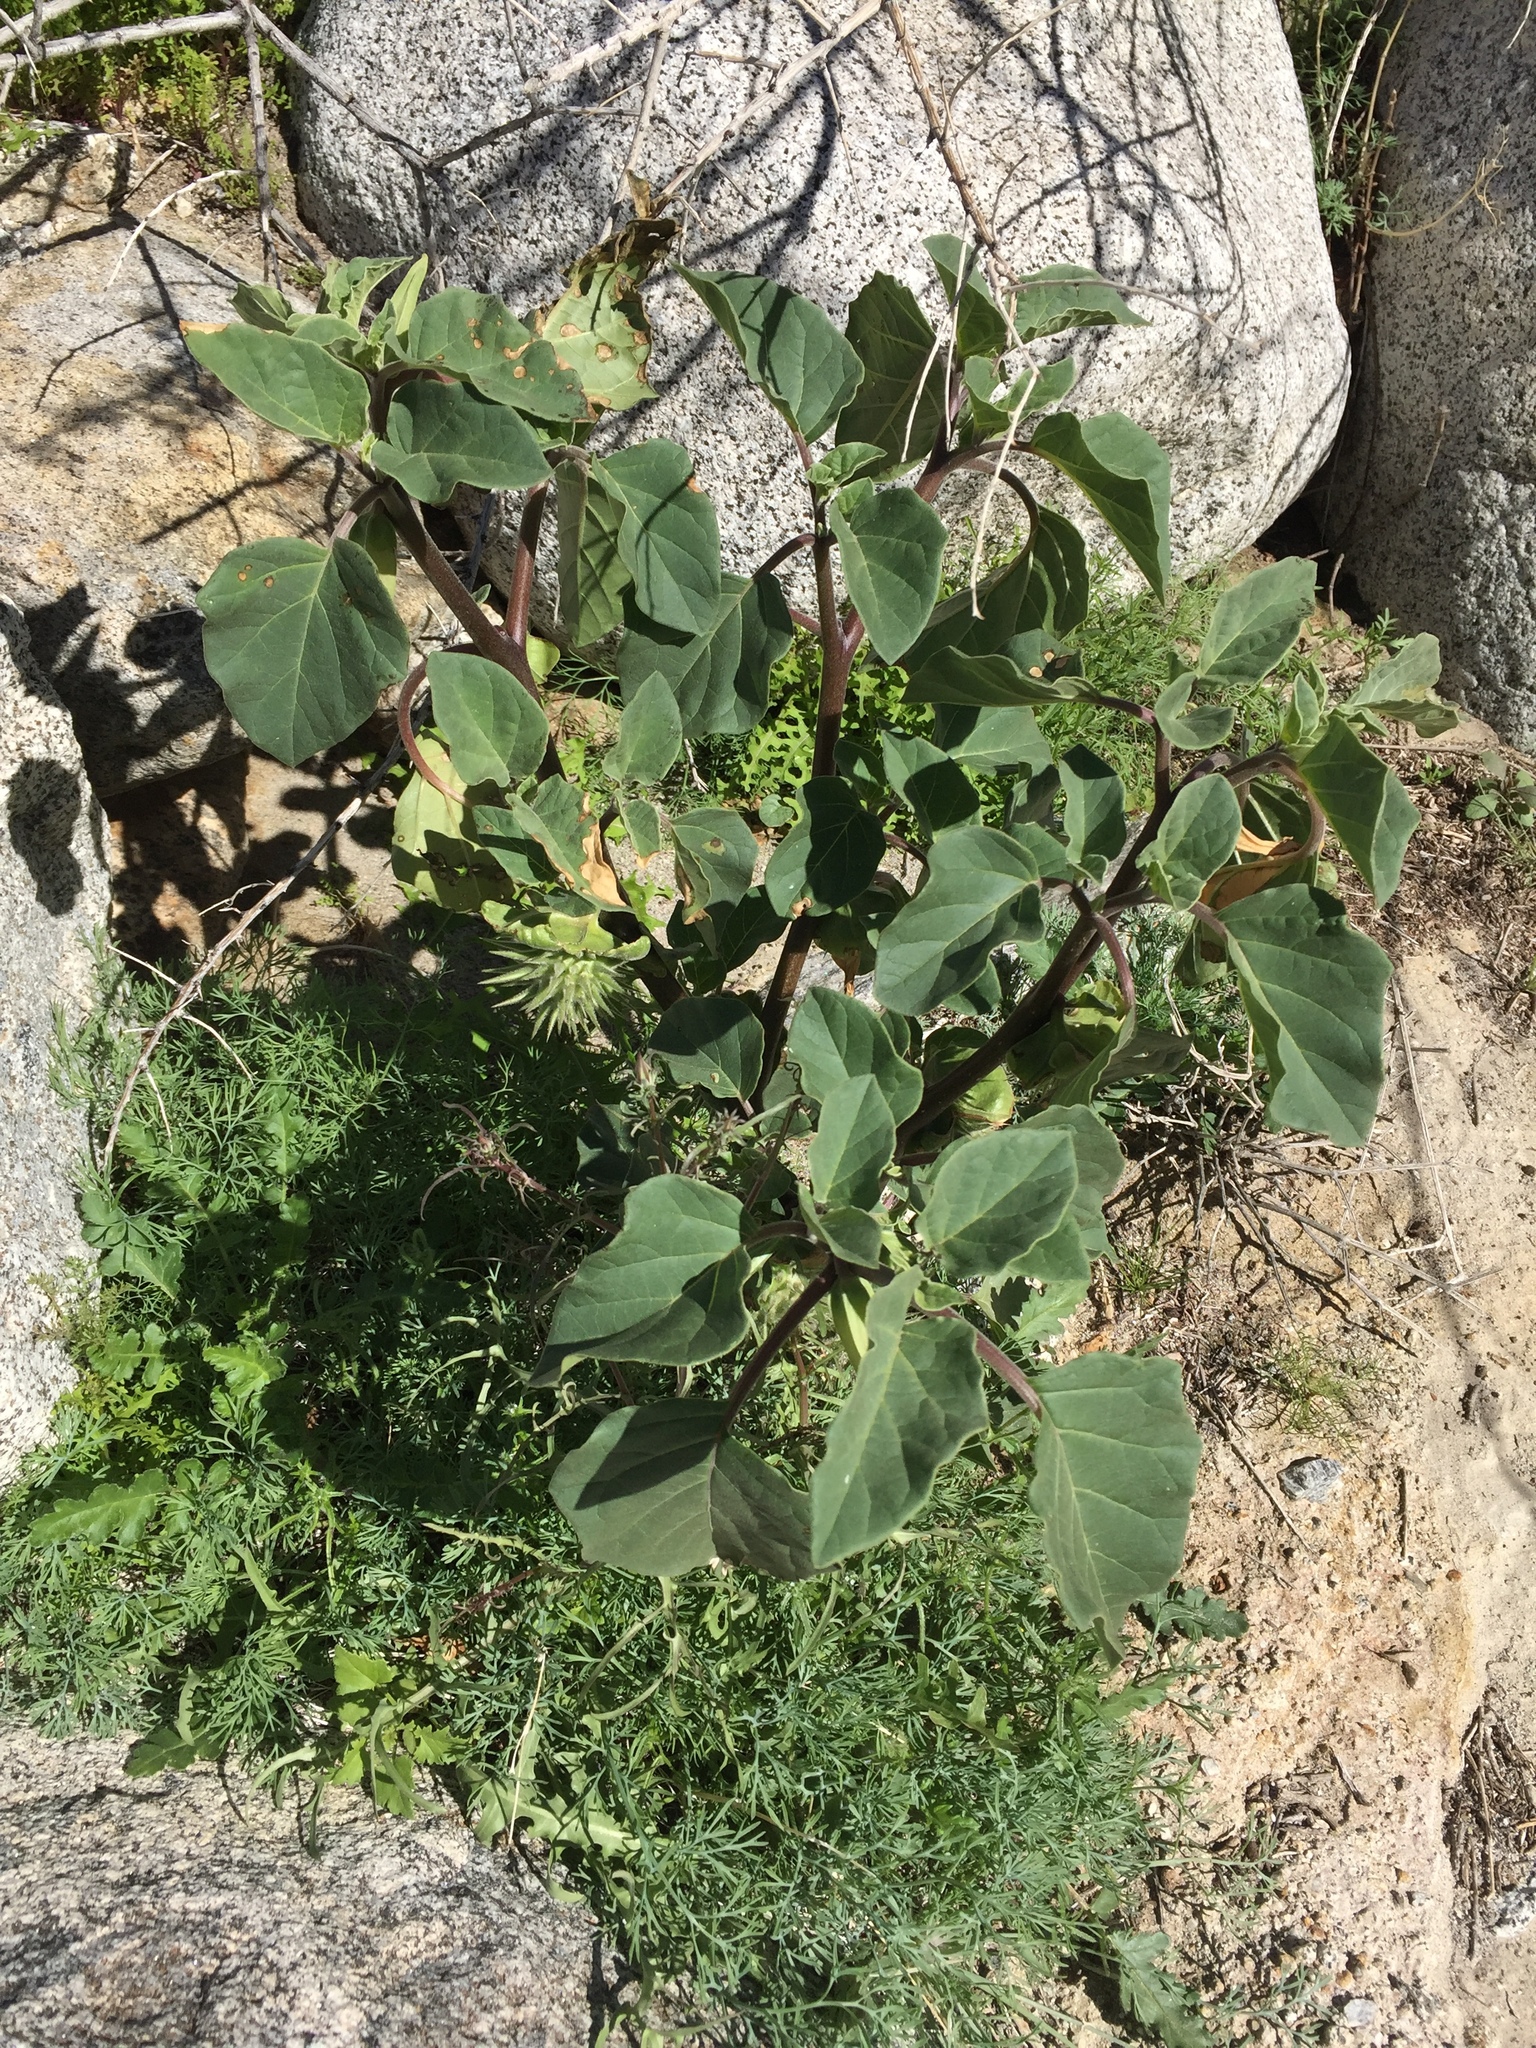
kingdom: Plantae
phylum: Tracheophyta
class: Magnoliopsida
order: Solanales
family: Solanaceae
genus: Datura
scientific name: Datura discolor
